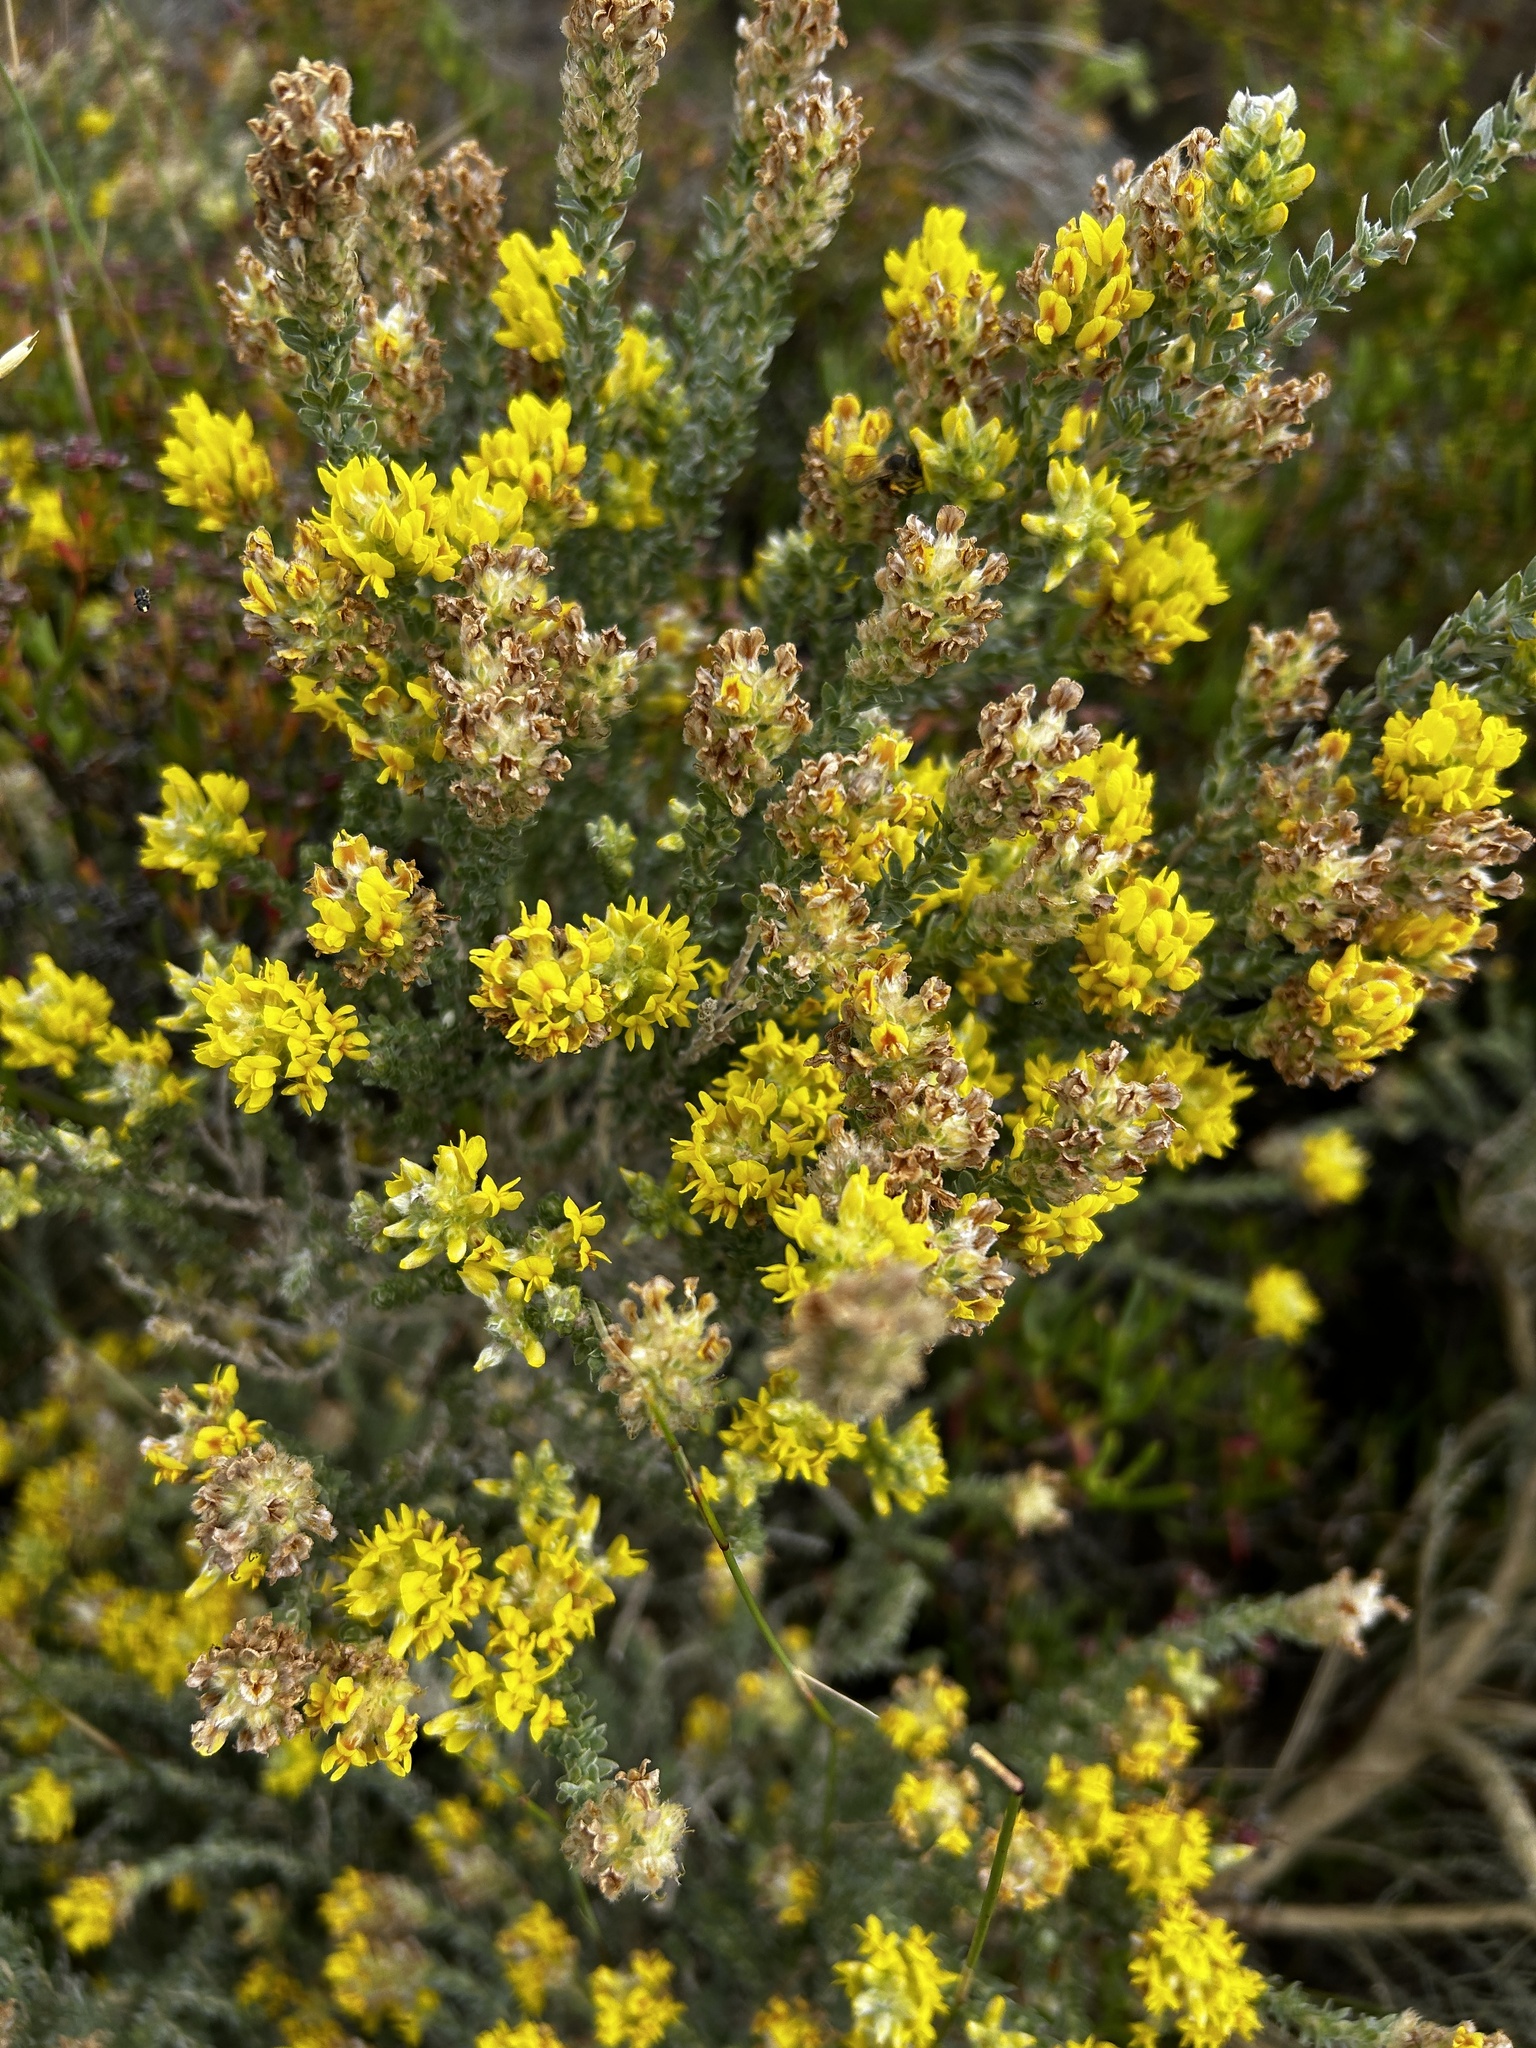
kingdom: Plantae
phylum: Tracheophyta
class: Magnoliopsida
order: Fabales
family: Fabaceae
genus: Aspalathus
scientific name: Aspalathus quinquefolia
